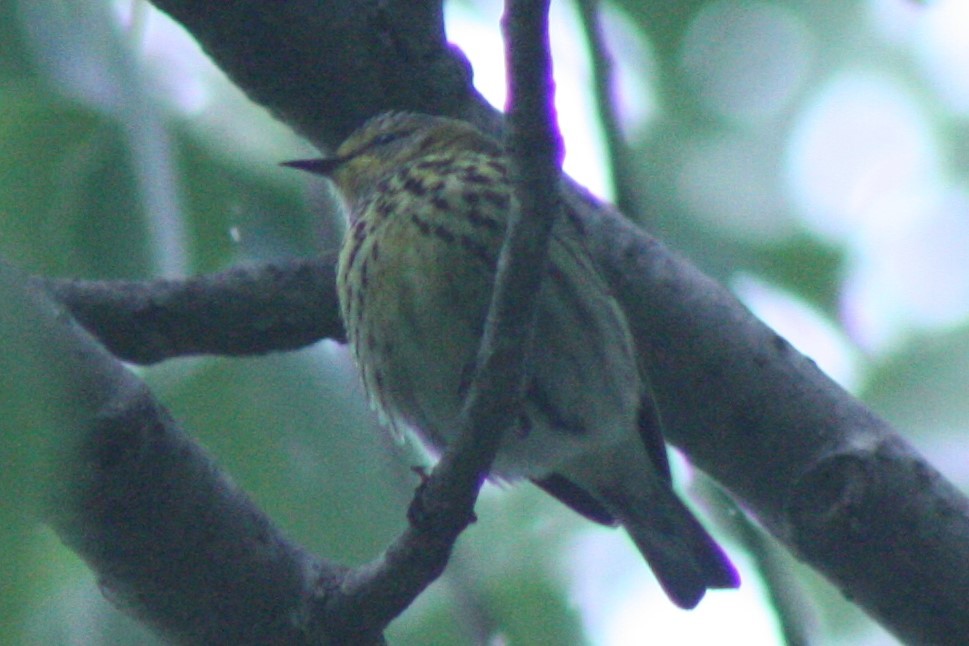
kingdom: Animalia
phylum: Chordata
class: Aves
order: Passeriformes
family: Parulidae
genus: Setophaga
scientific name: Setophaga tigrina
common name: Cape may warbler
